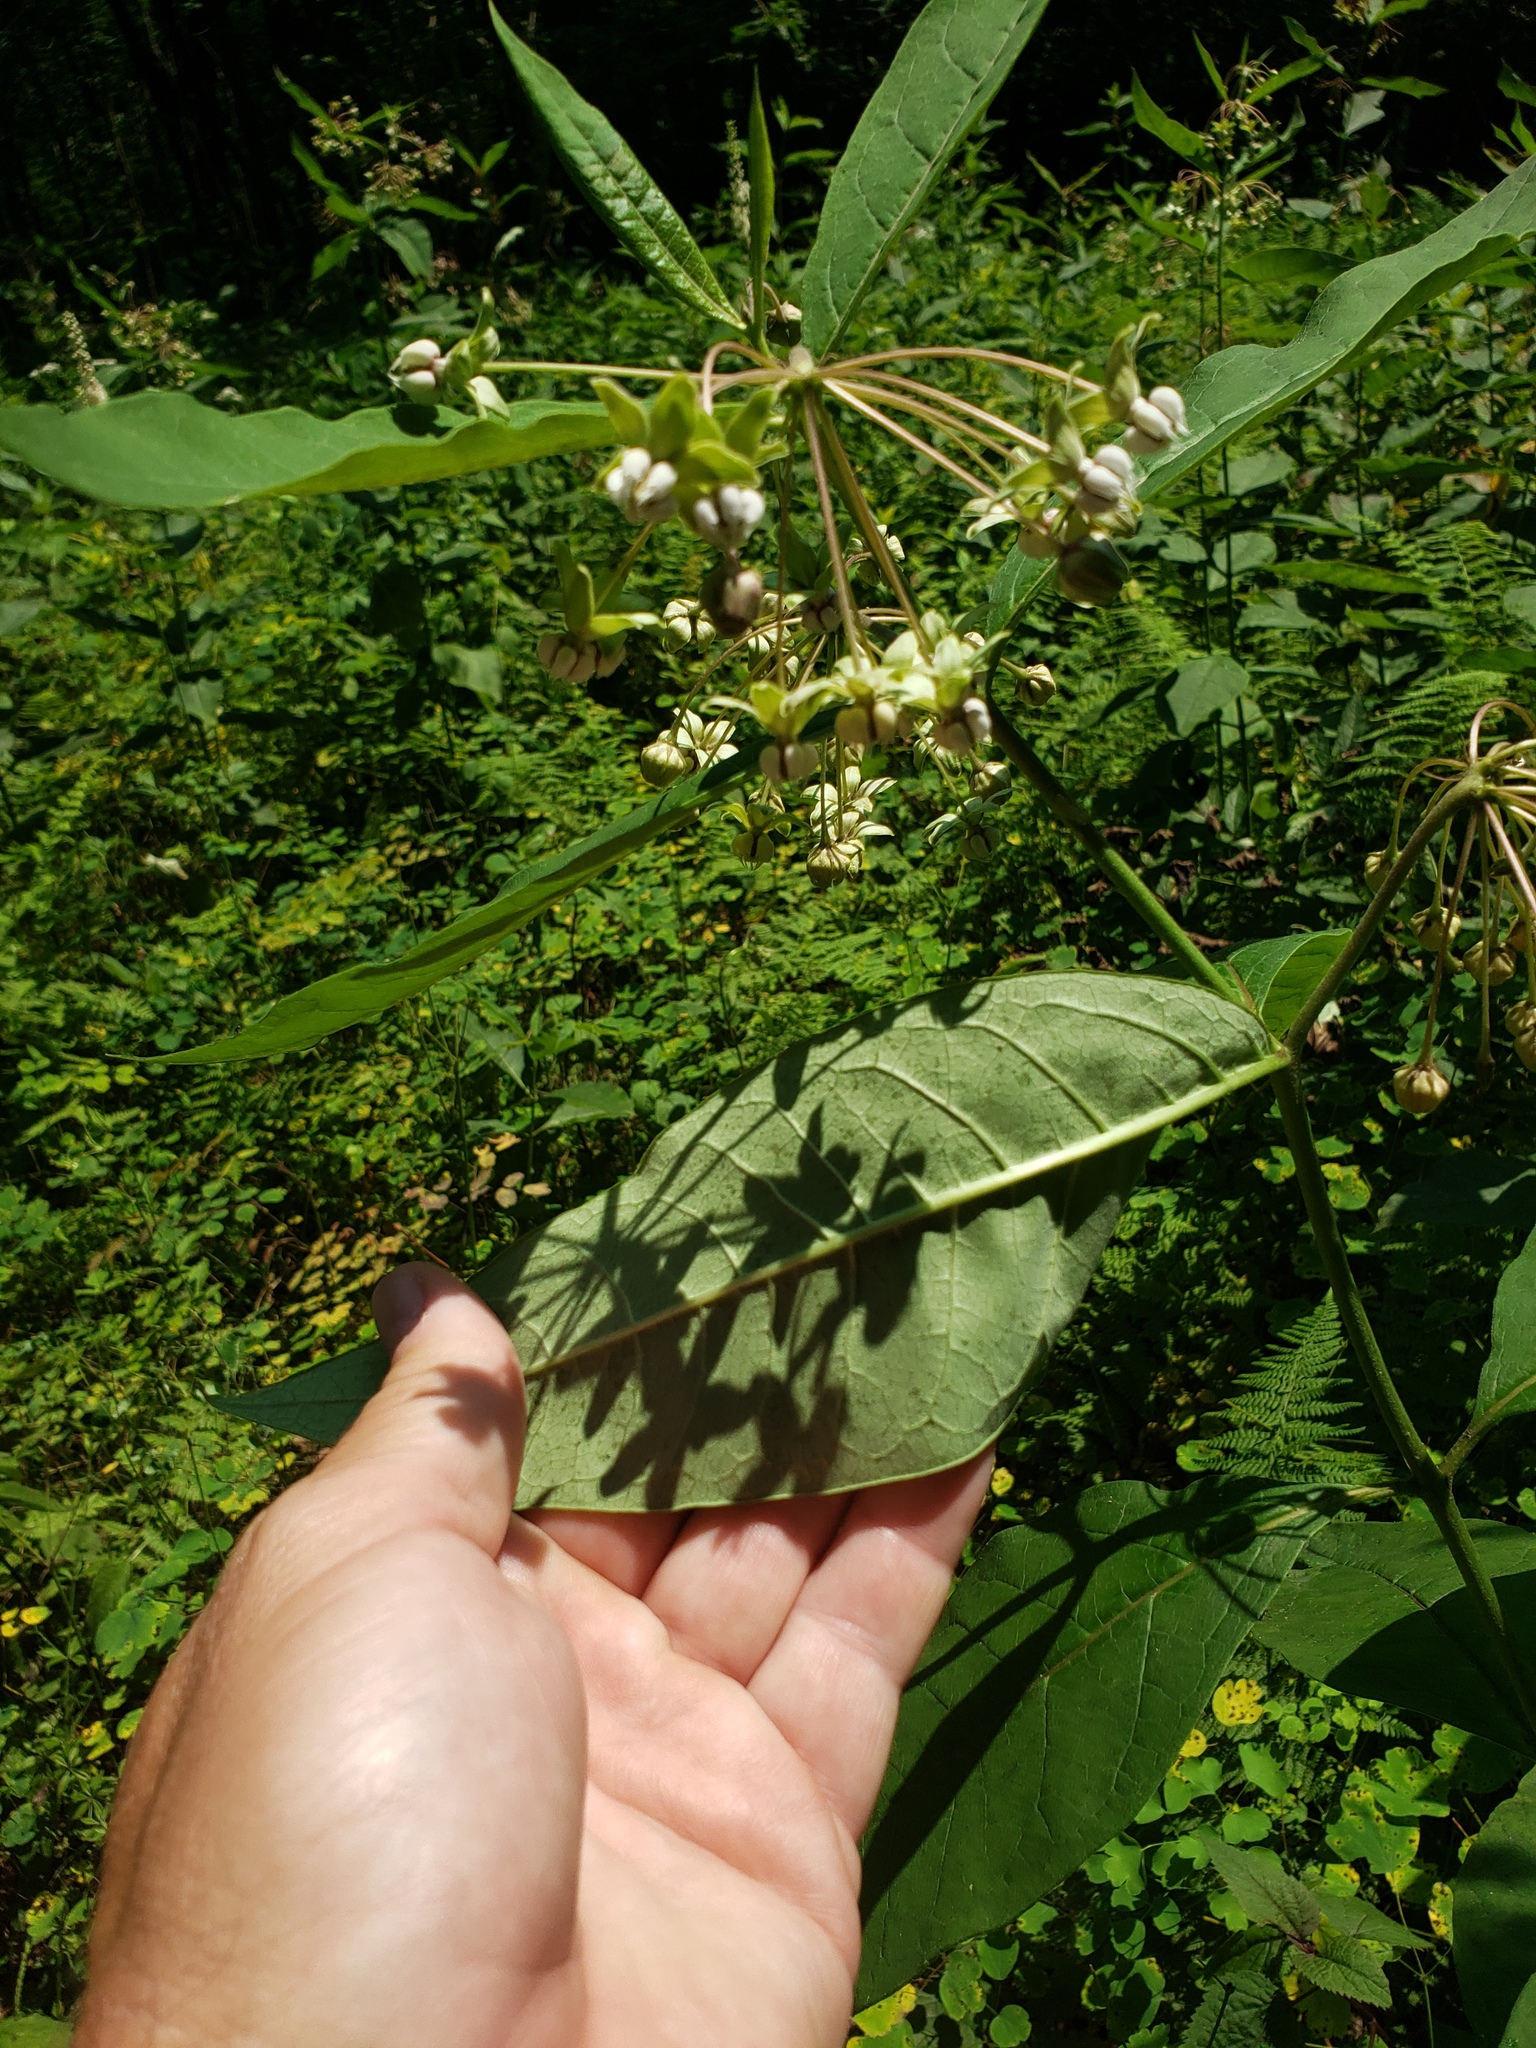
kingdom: Plantae
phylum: Tracheophyta
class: Magnoliopsida
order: Gentianales
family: Apocynaceae
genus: Asclepias
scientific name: Asclepias exaltata
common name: Poke milkweed
